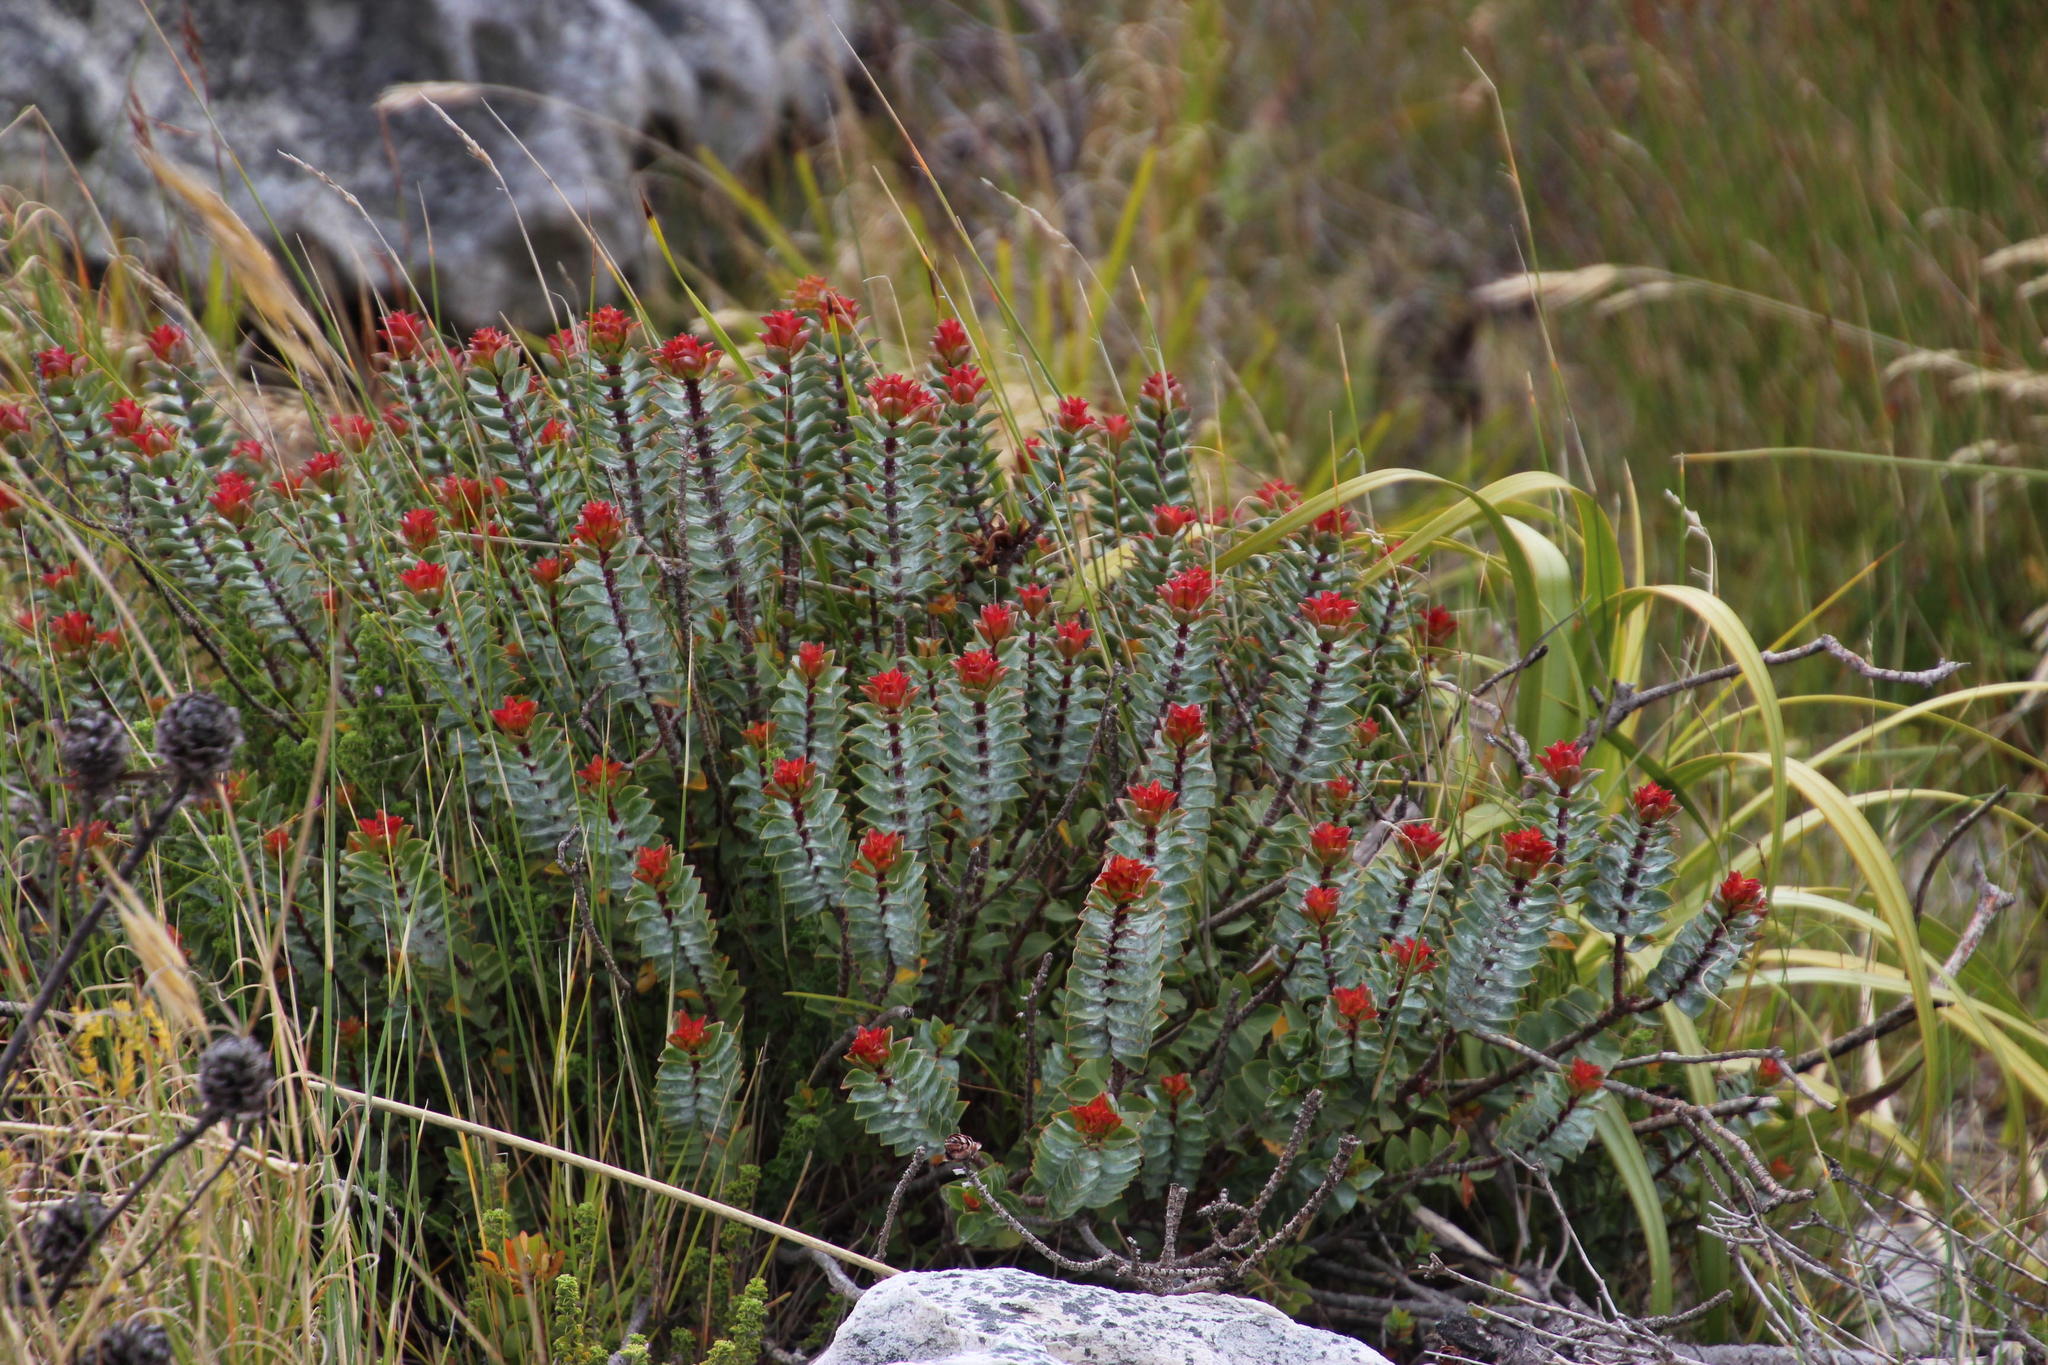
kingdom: Plantae
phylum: Tracheophyta
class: Magnoliopsida
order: Myrtales
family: Penaeaceae
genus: Saltera
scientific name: Saltera sarcocolla
